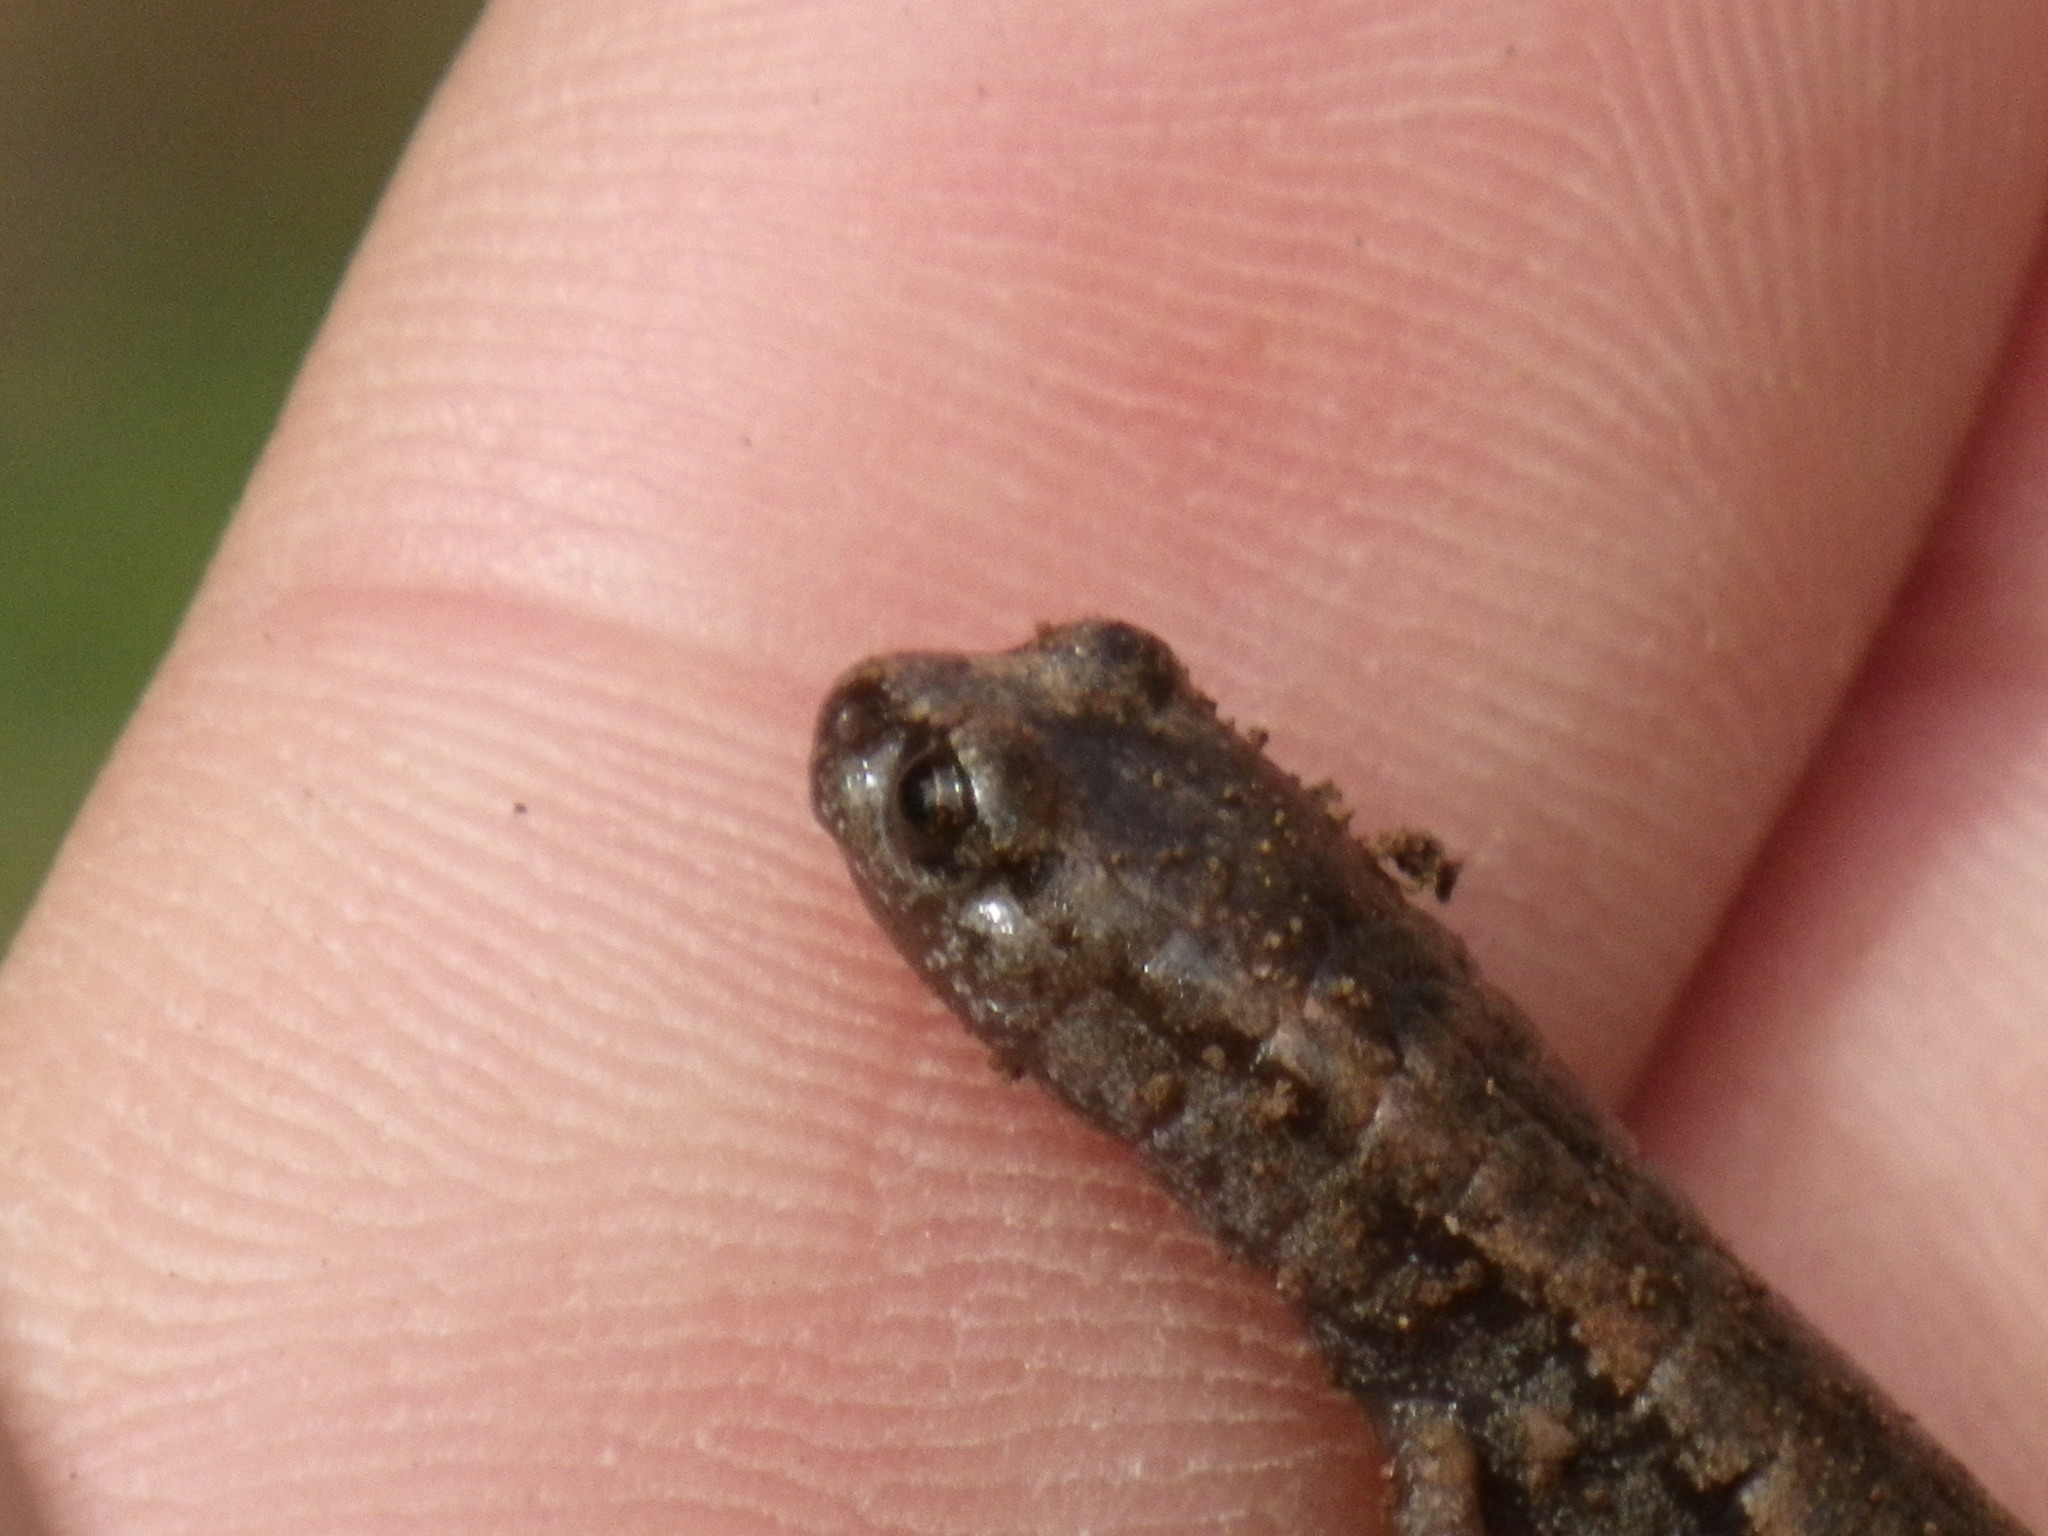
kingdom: Animalia
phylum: Chordata
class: Amphibia
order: Caudata
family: Plethodontidae
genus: Batrachoseps
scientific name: Batrachoseps attenuatus
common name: California slender salamander
